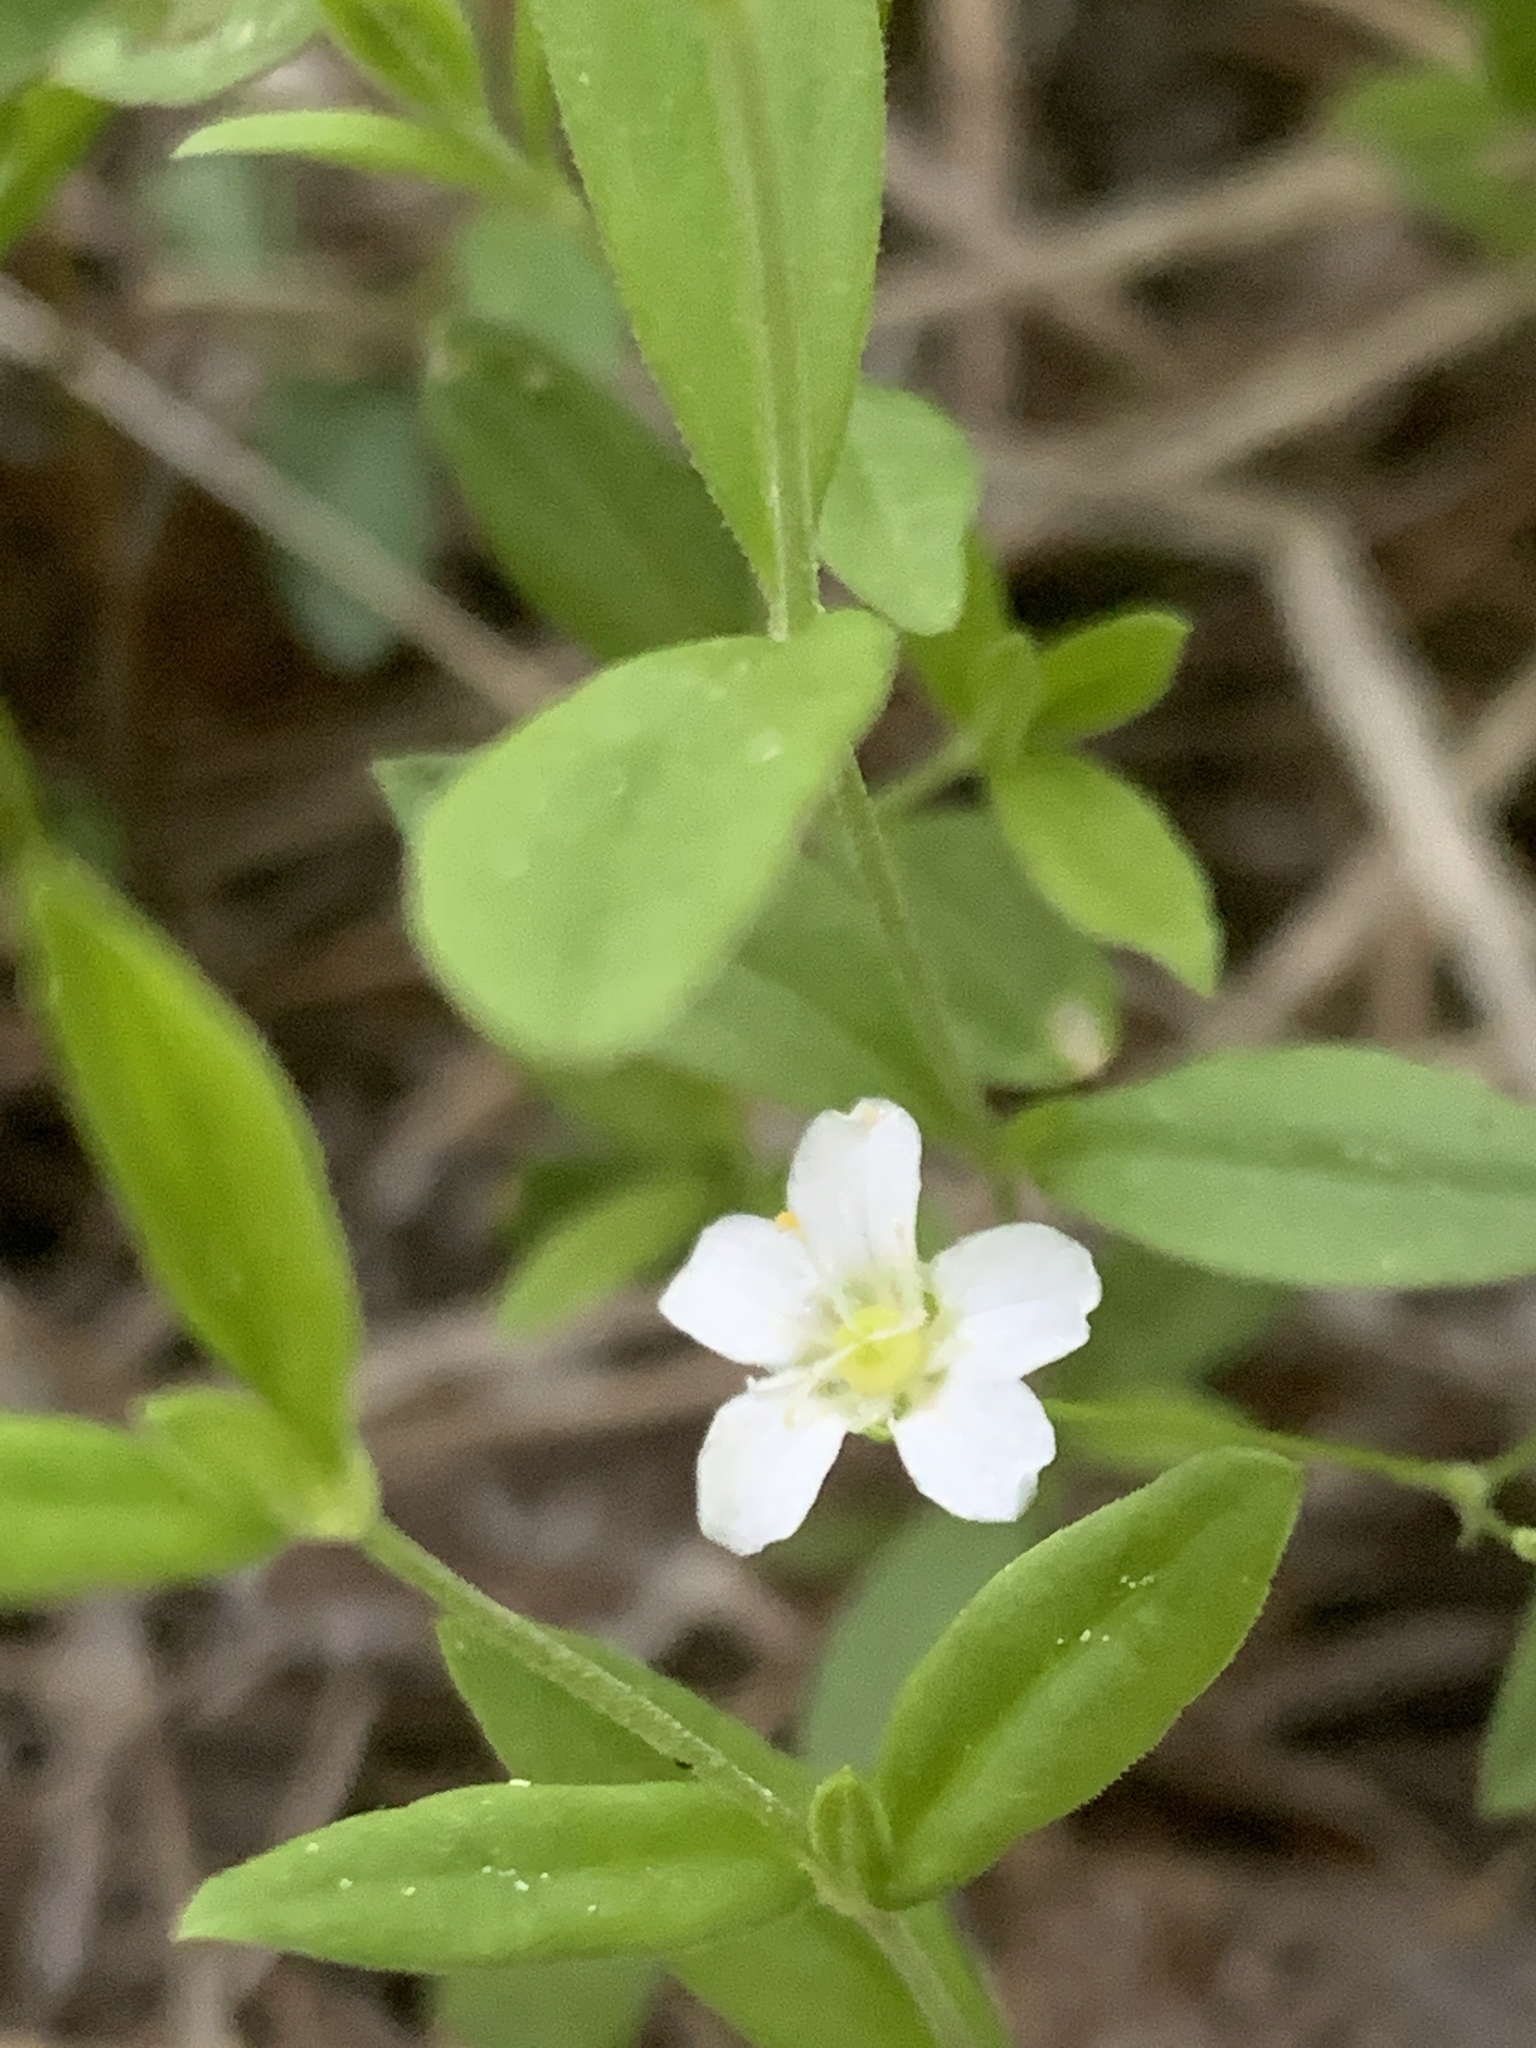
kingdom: Plantae
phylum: Tracheophyta
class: Magnoliopsida
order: Caryophyllales
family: Caryophyllaceae
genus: Moehringia
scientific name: Moehringia lateriflora
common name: Blunt-leaved sandwort
